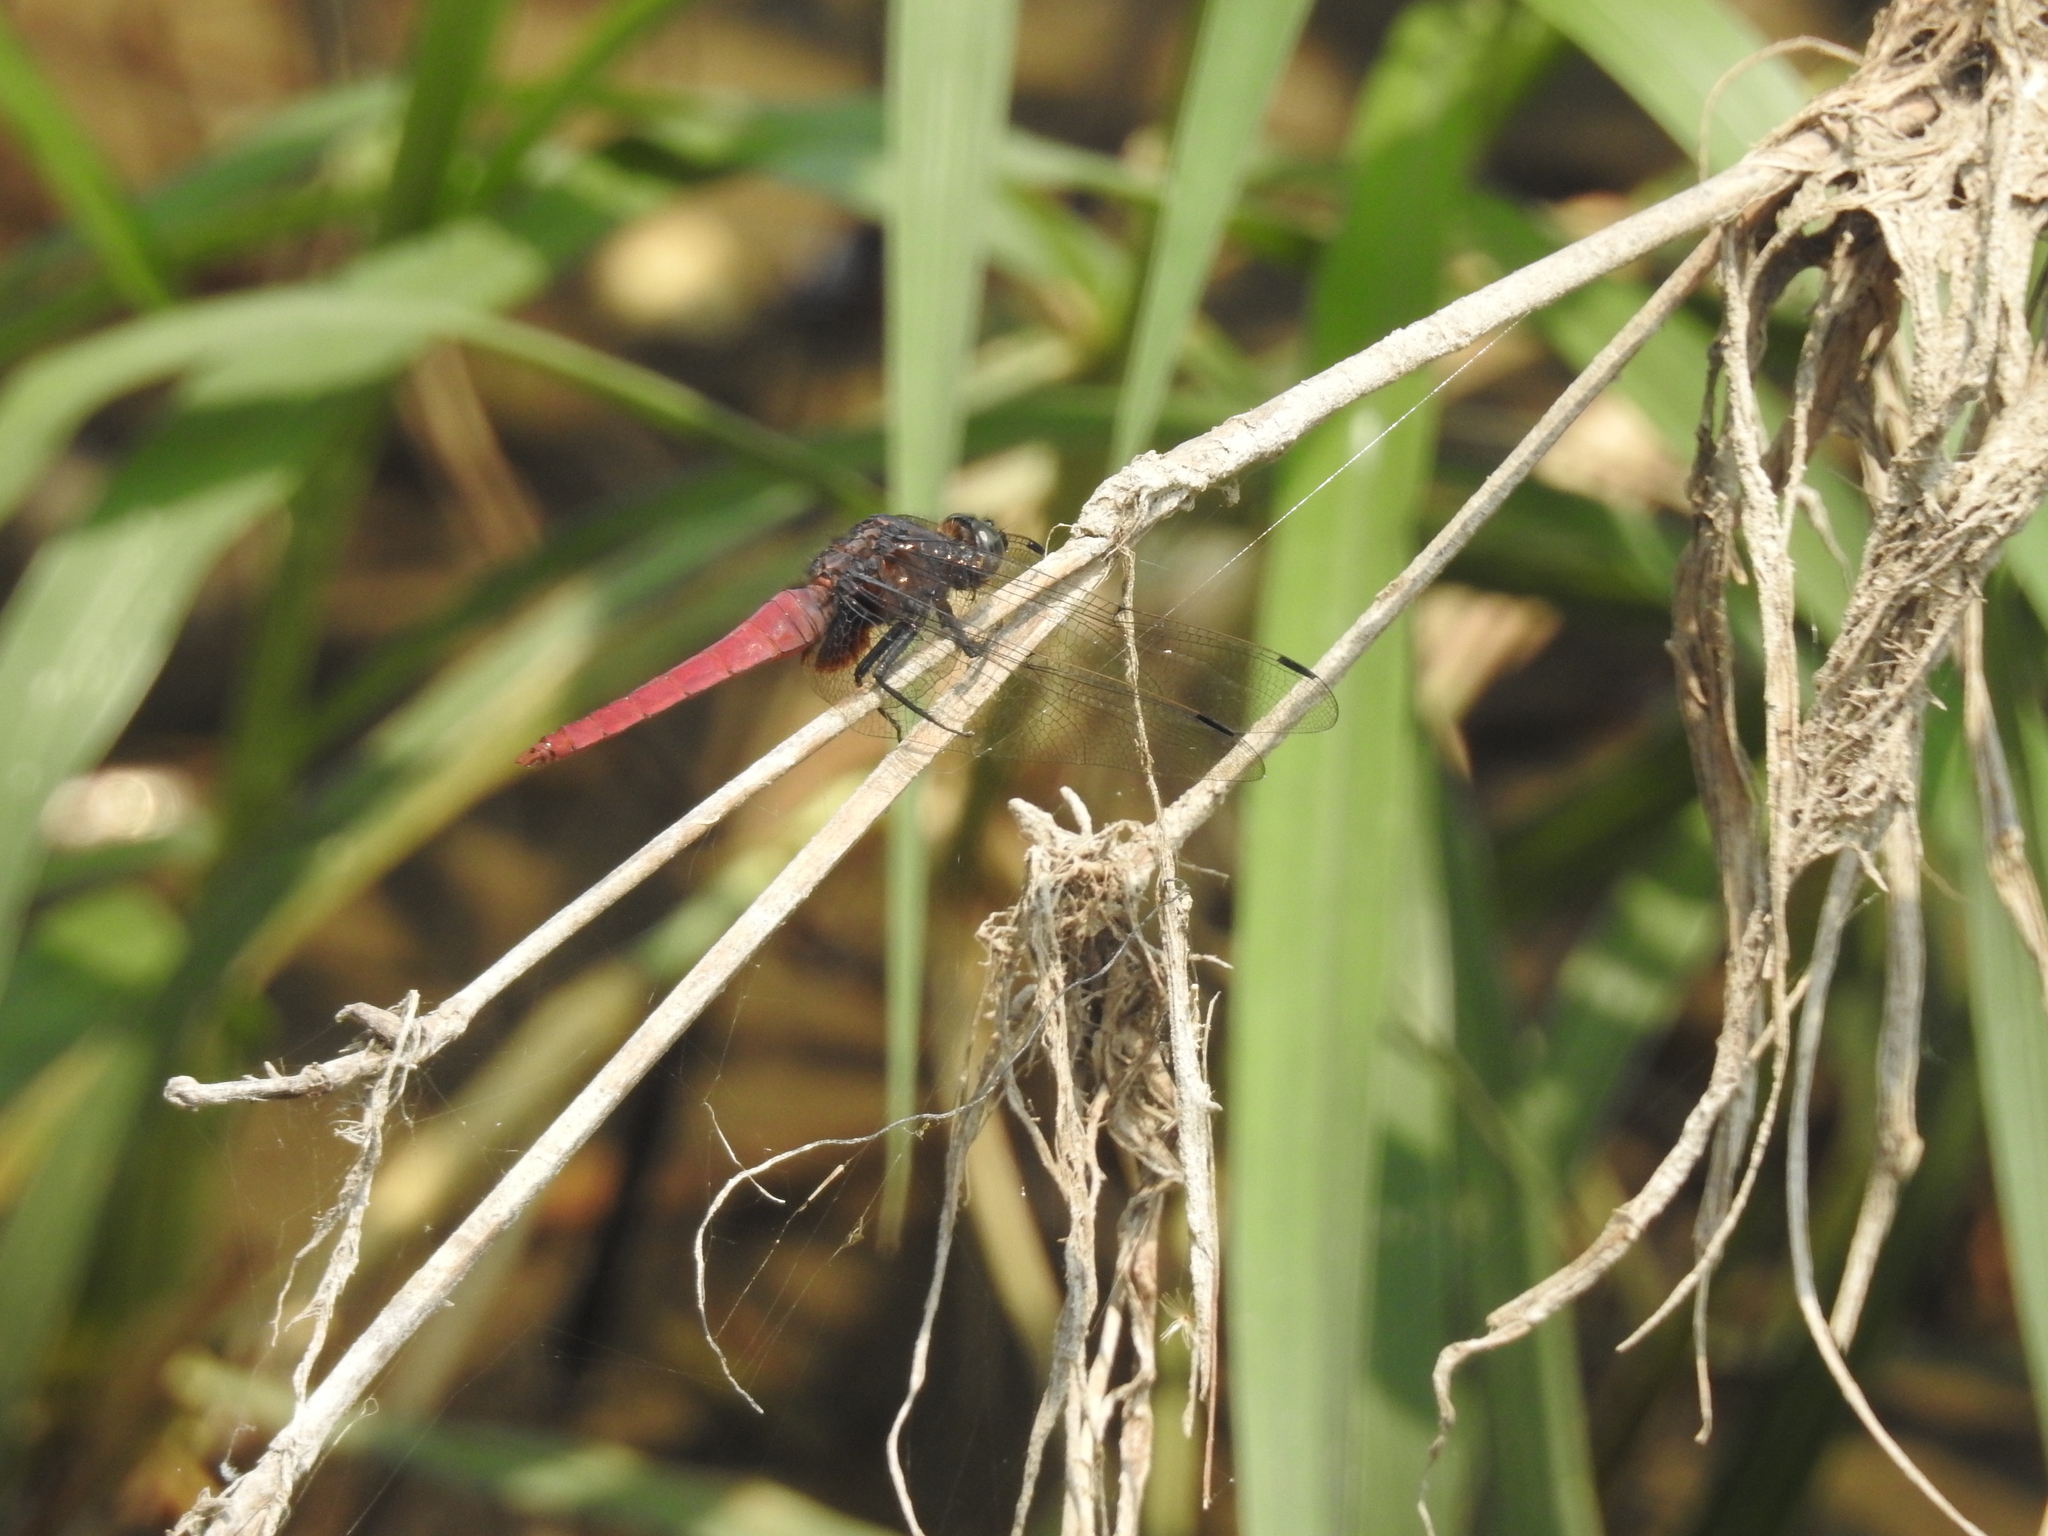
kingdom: Animalia
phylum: Arthropoda
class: Insecta
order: Odonata
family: Libellulidae
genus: Orthetrum
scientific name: Orthetrum pruinosum
